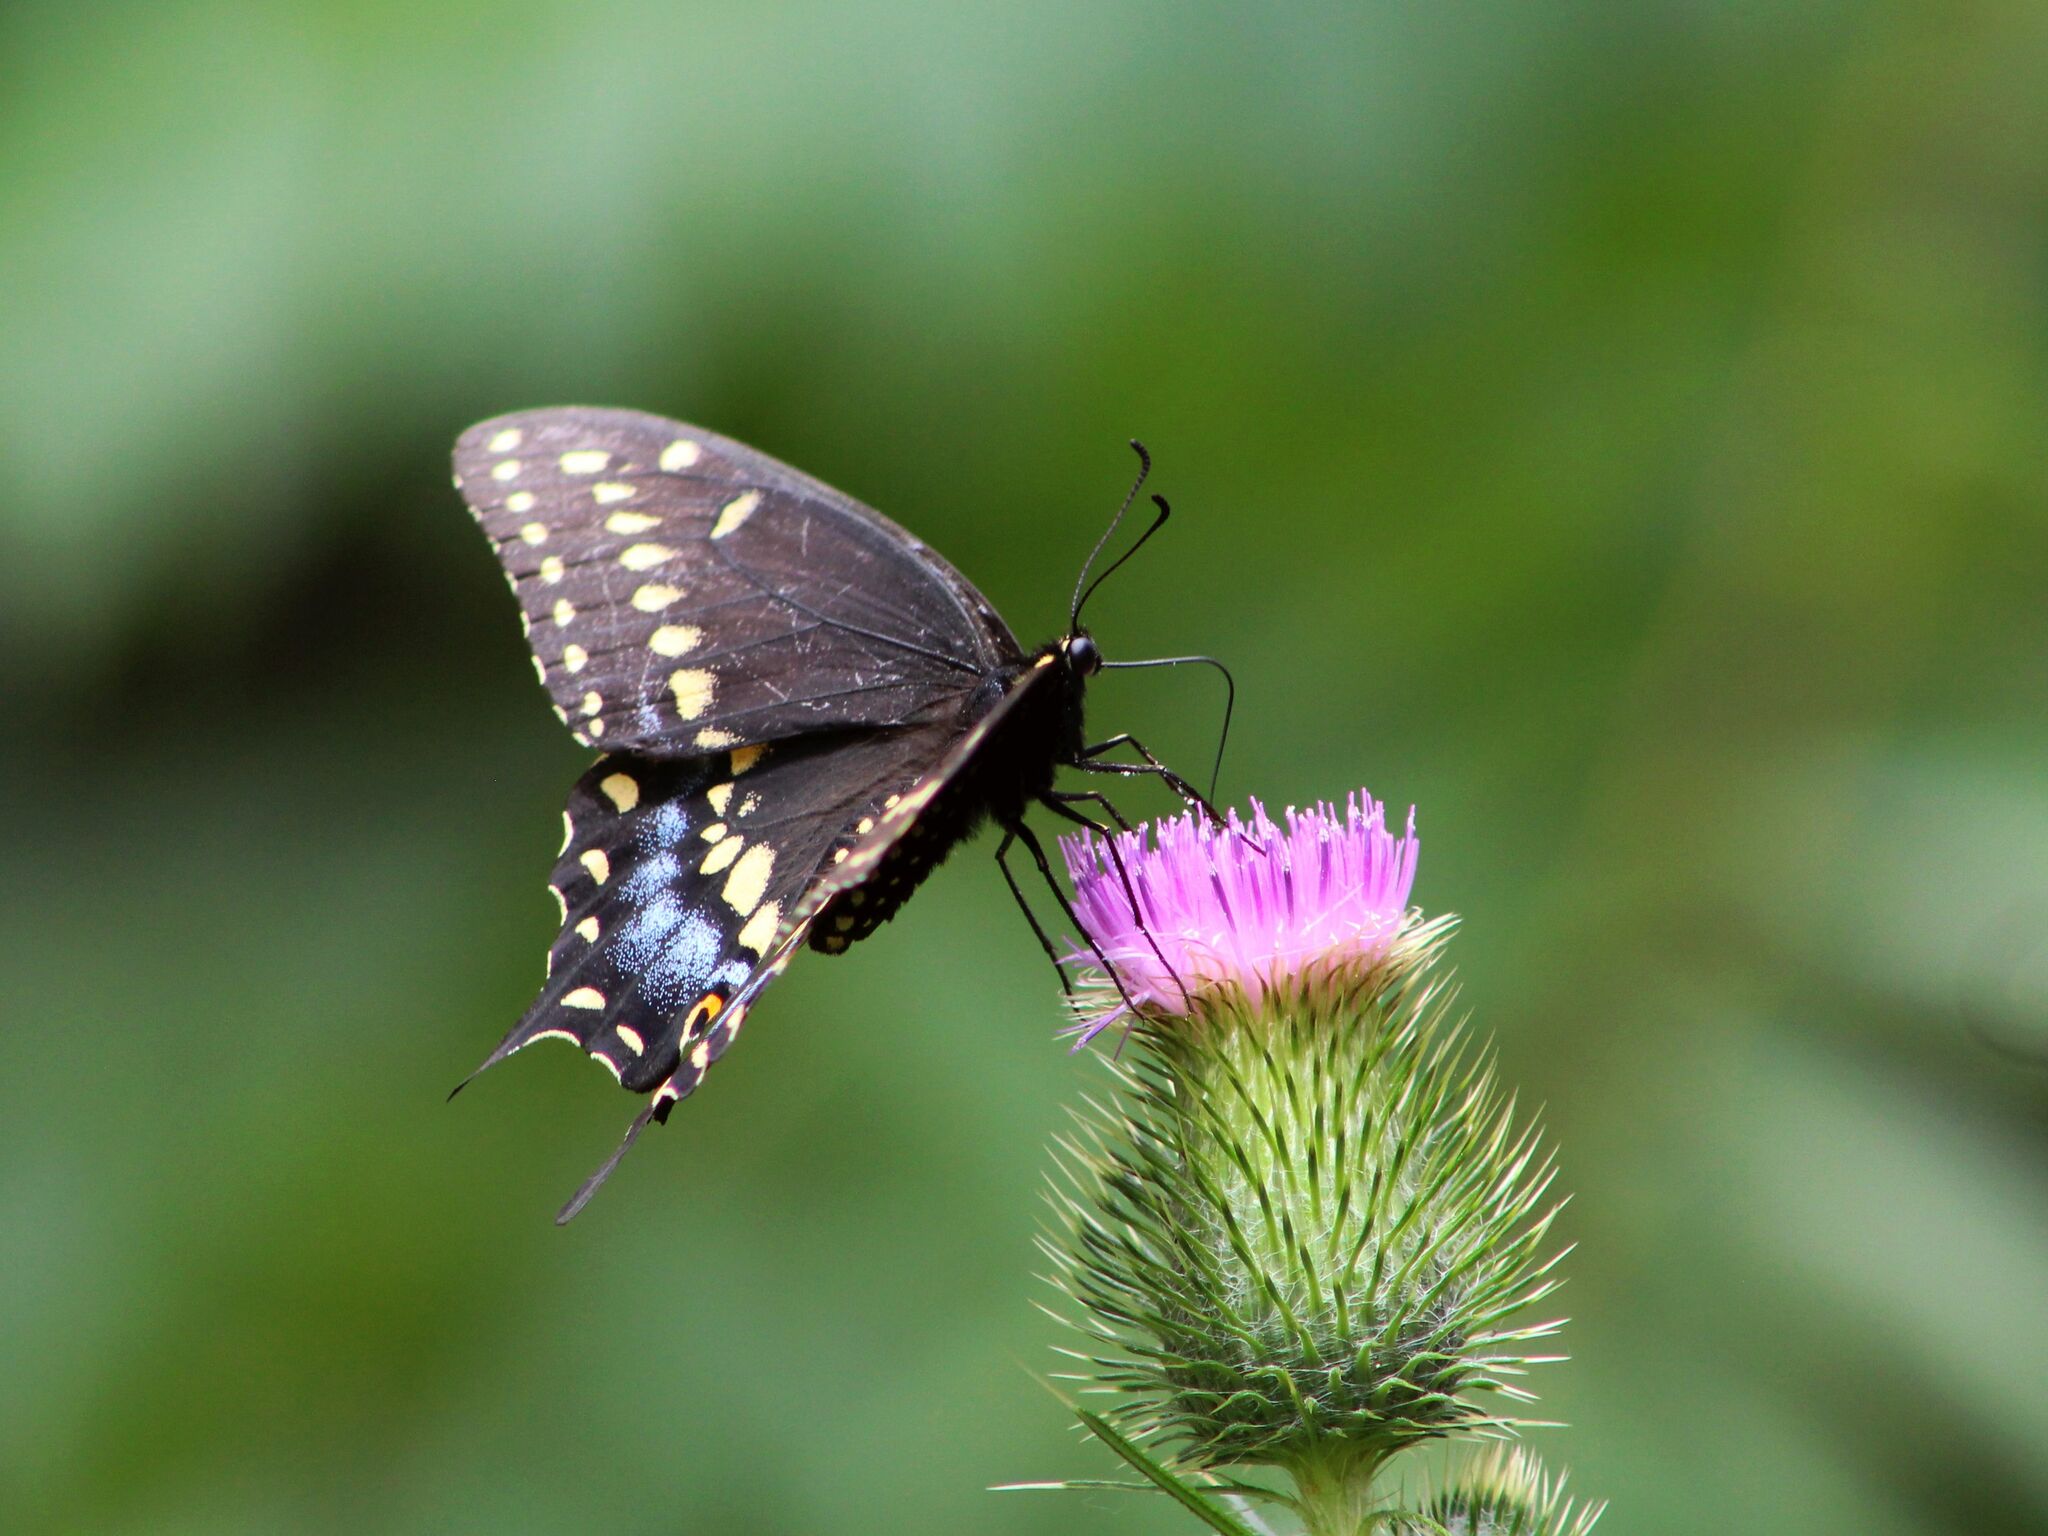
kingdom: Animalia
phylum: Arthropoda
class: Insecta
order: Lepidoptera
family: Papilionidae
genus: Papilio
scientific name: Papilio polyxenes
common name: Black swallowtail
